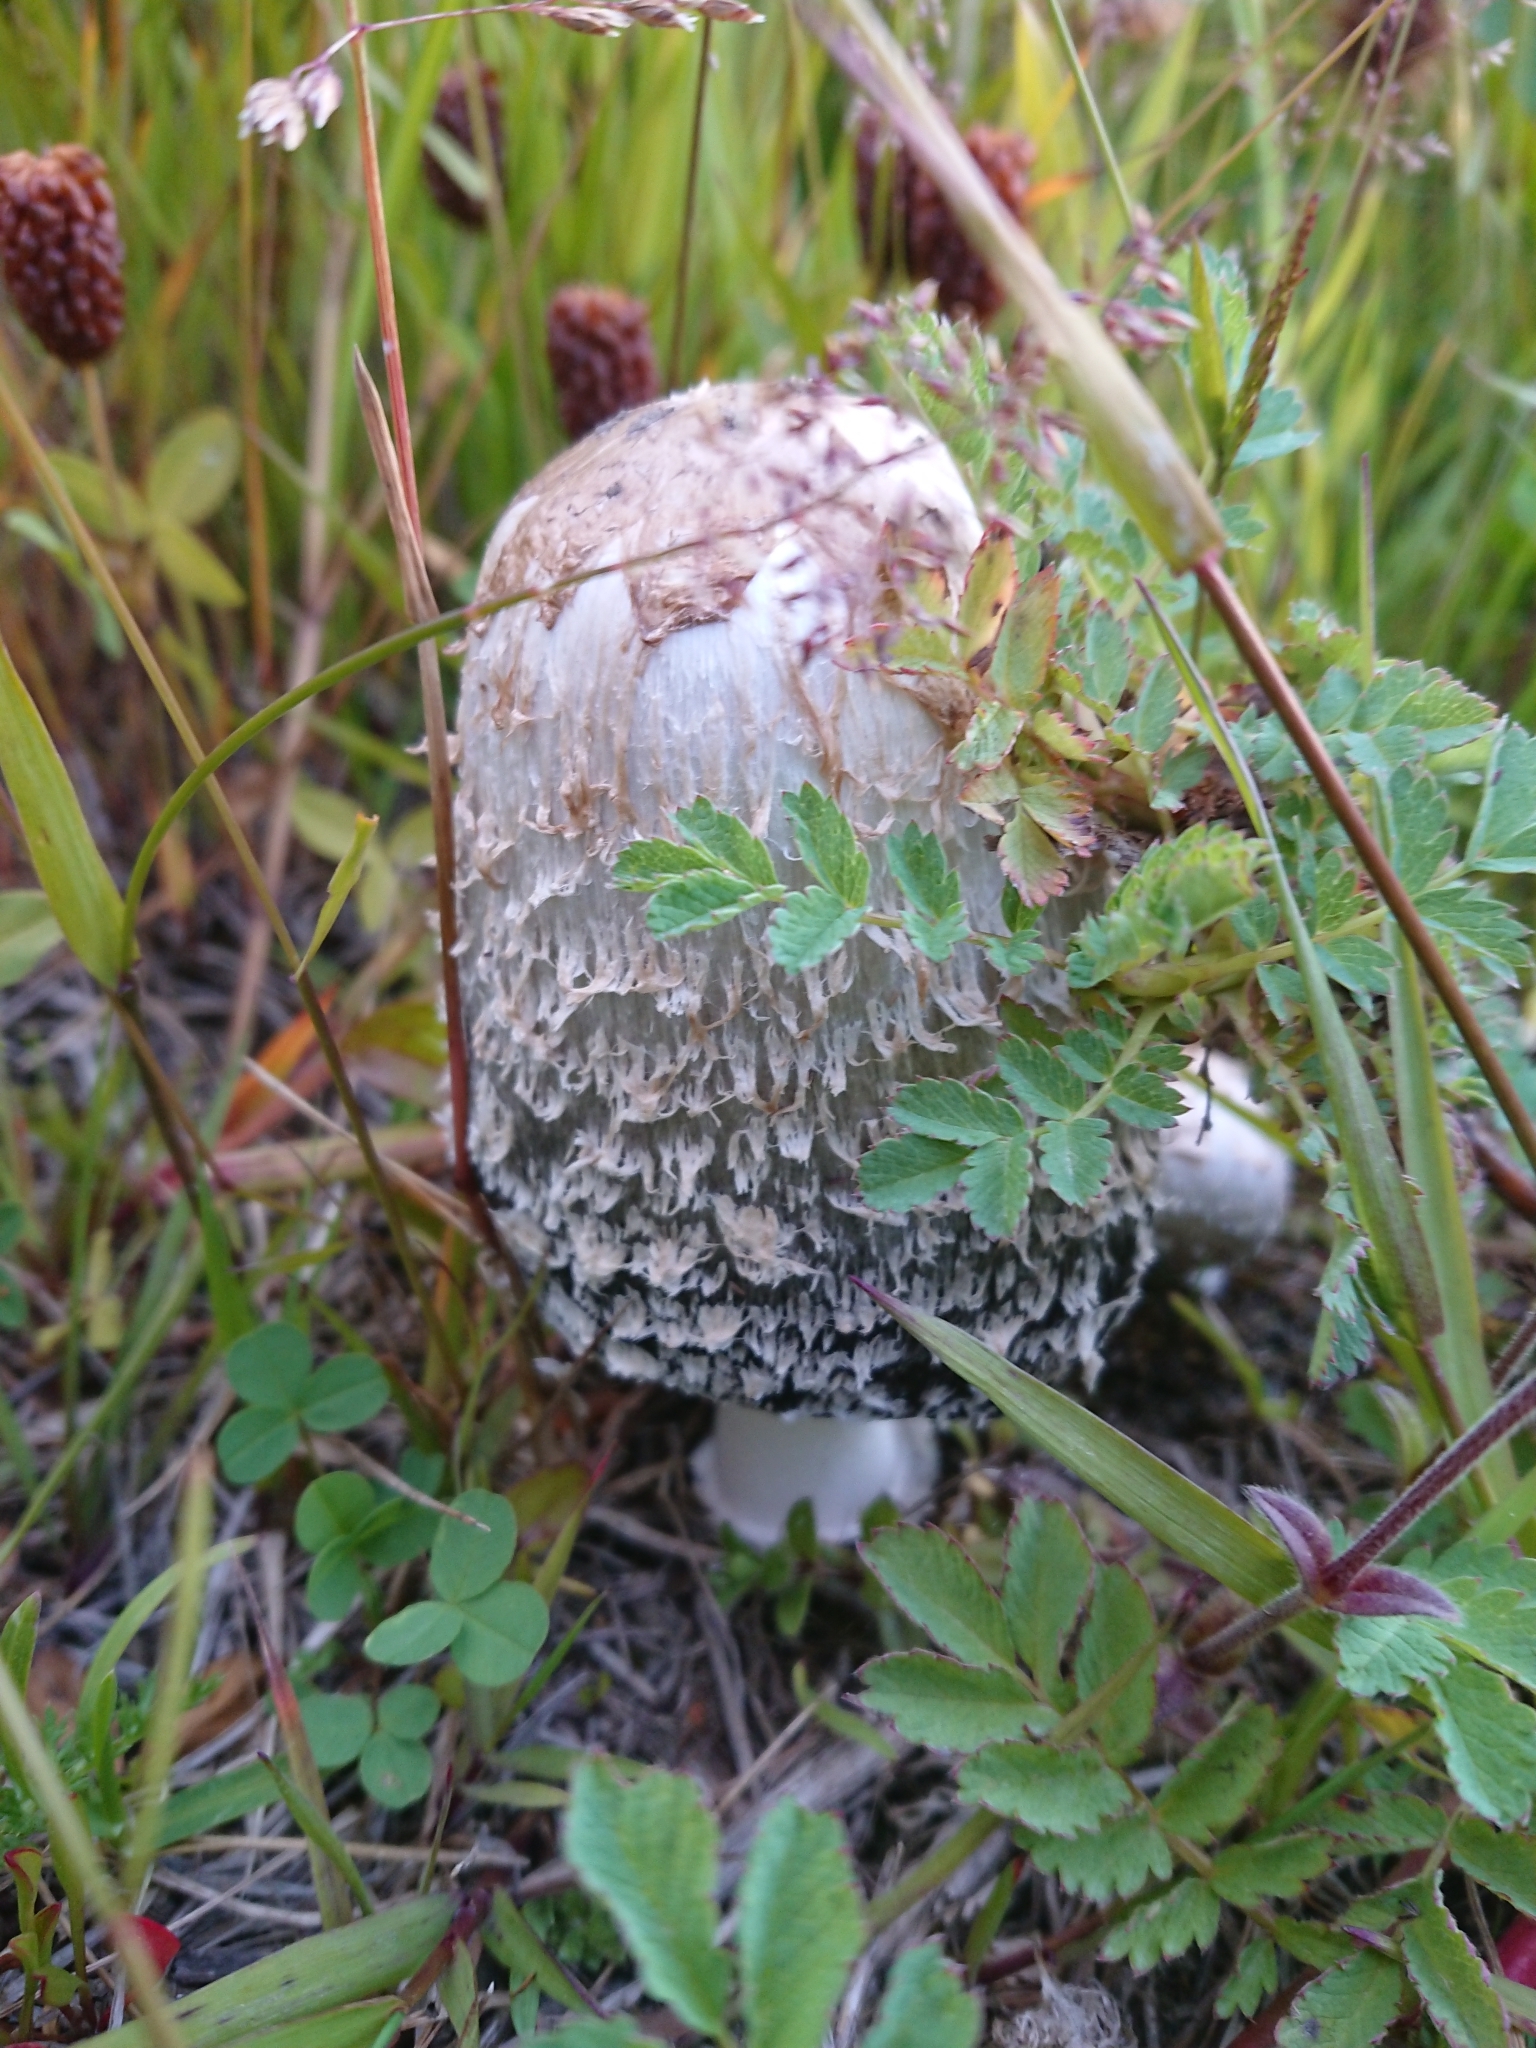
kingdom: Fungi
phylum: Basidiomycota
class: Agaricomycetes
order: Agaricales
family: Agaricaceae
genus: Coprinus
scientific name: Coprinus comatus
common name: Lawyer's wig
